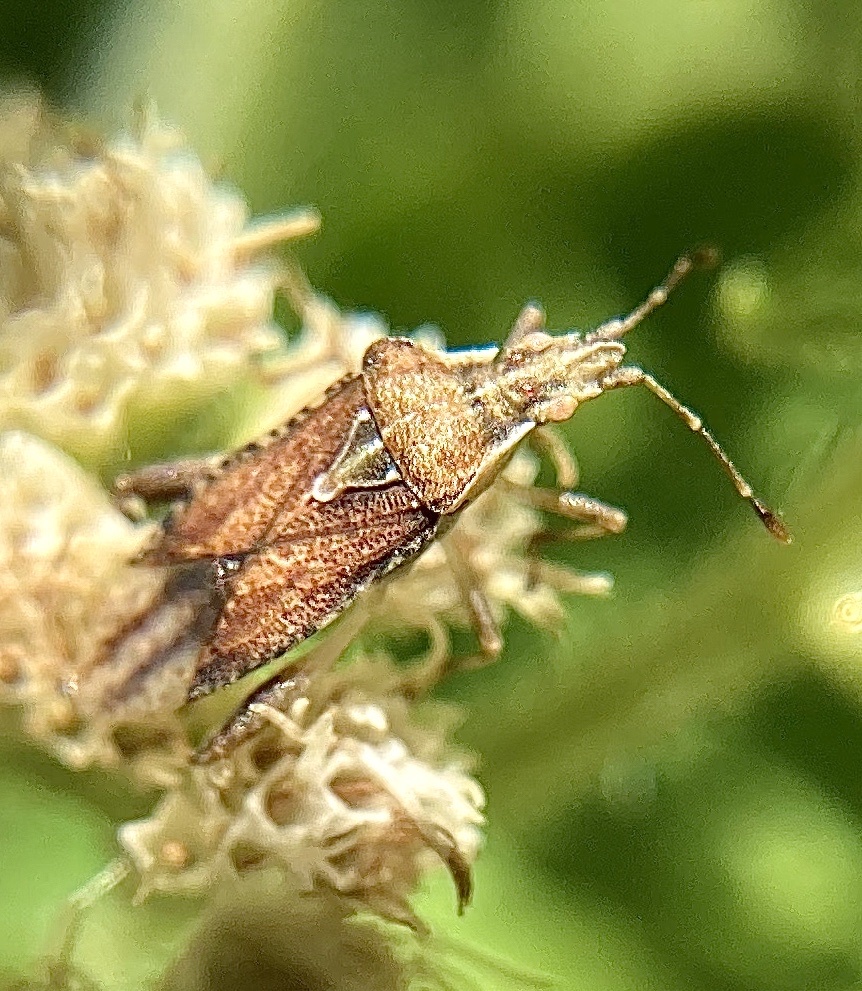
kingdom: Animalia
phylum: Arthropoda
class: Insecta
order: Hemiptera
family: Rhopalidae
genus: Harmostes
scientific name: Harmostes fraterculus
